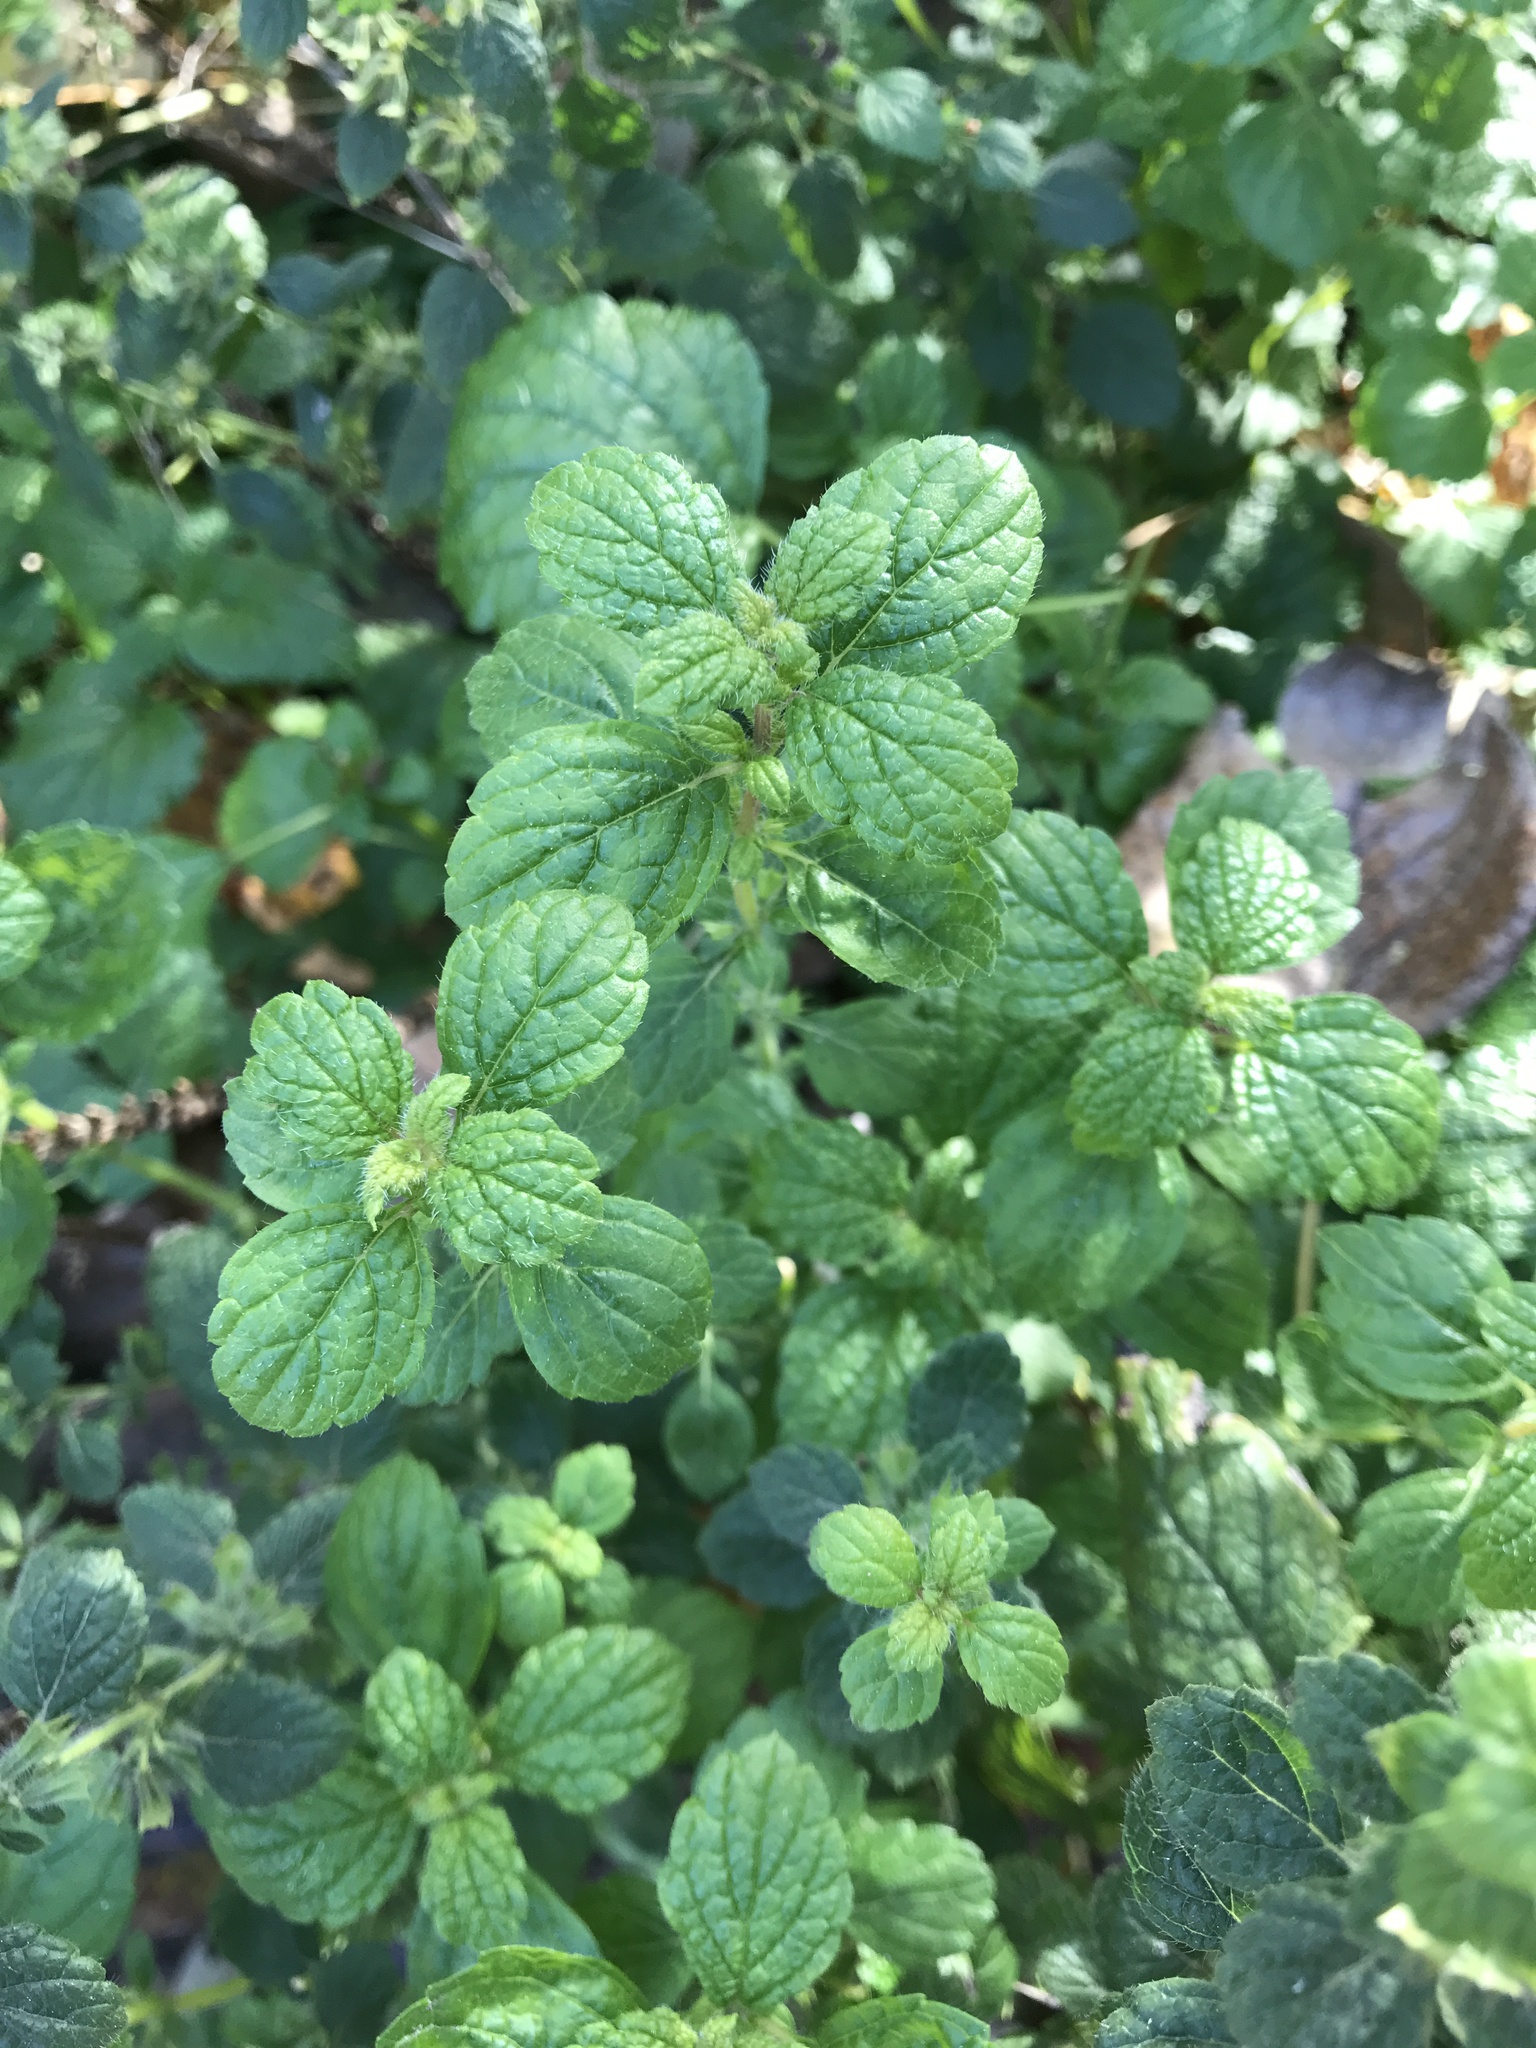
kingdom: Plantae
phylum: Tracheophyta
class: Magnoliopsida
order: Lamiales
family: Lamiaceae
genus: Melissa
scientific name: Melissa officinalis
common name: Balm
